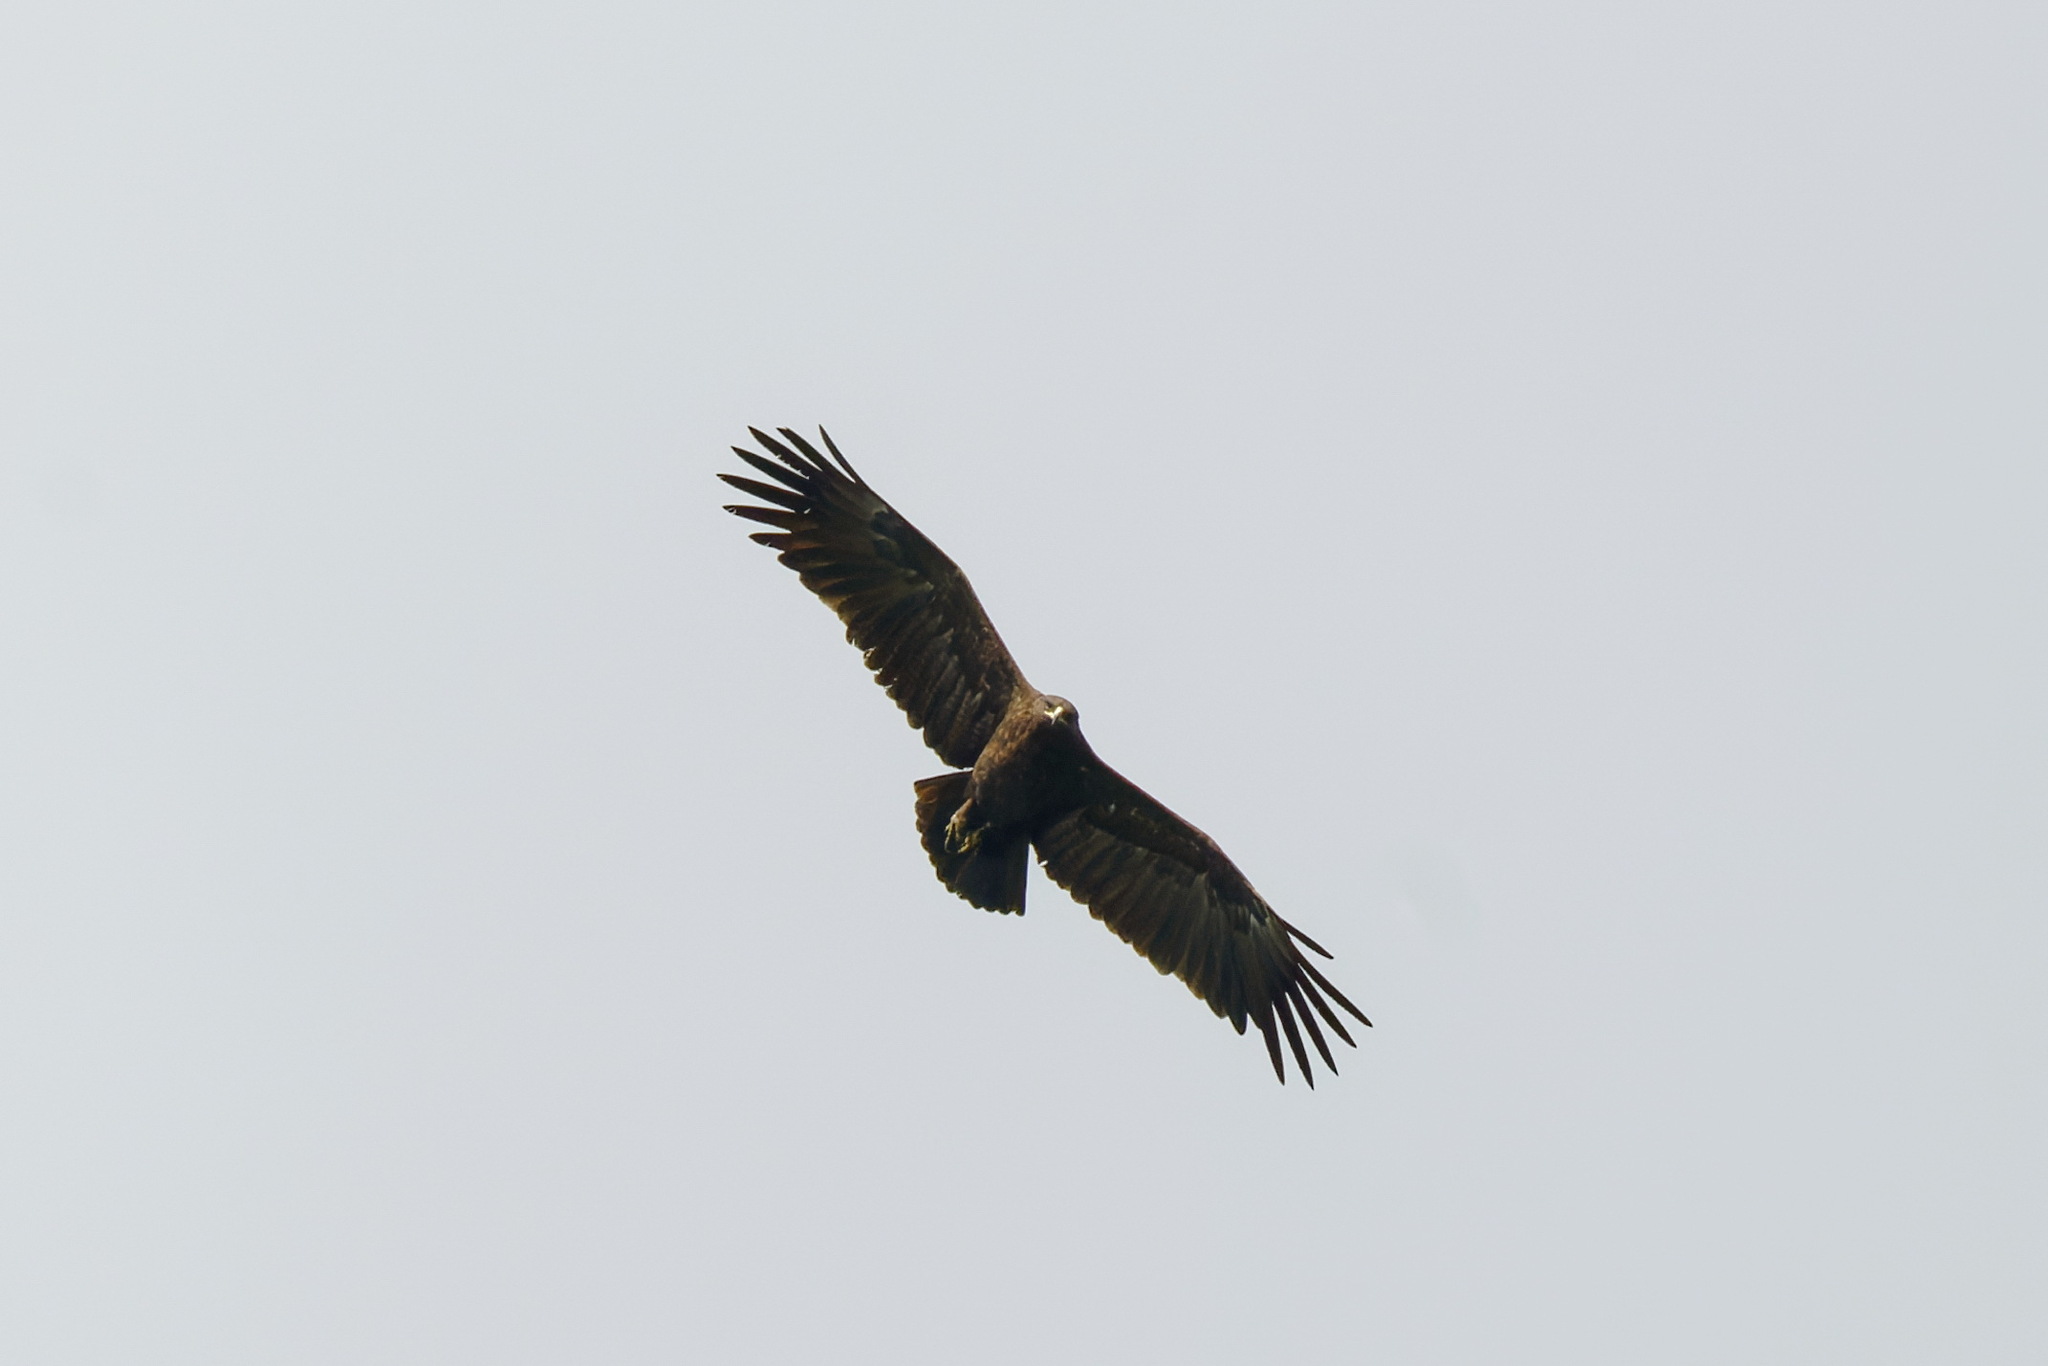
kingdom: Animalia
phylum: Chordata
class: Aves
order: Accipitriformes
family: Accipitridae
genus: Aquila
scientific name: Aquila clanga
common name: Greater spotted eagle
